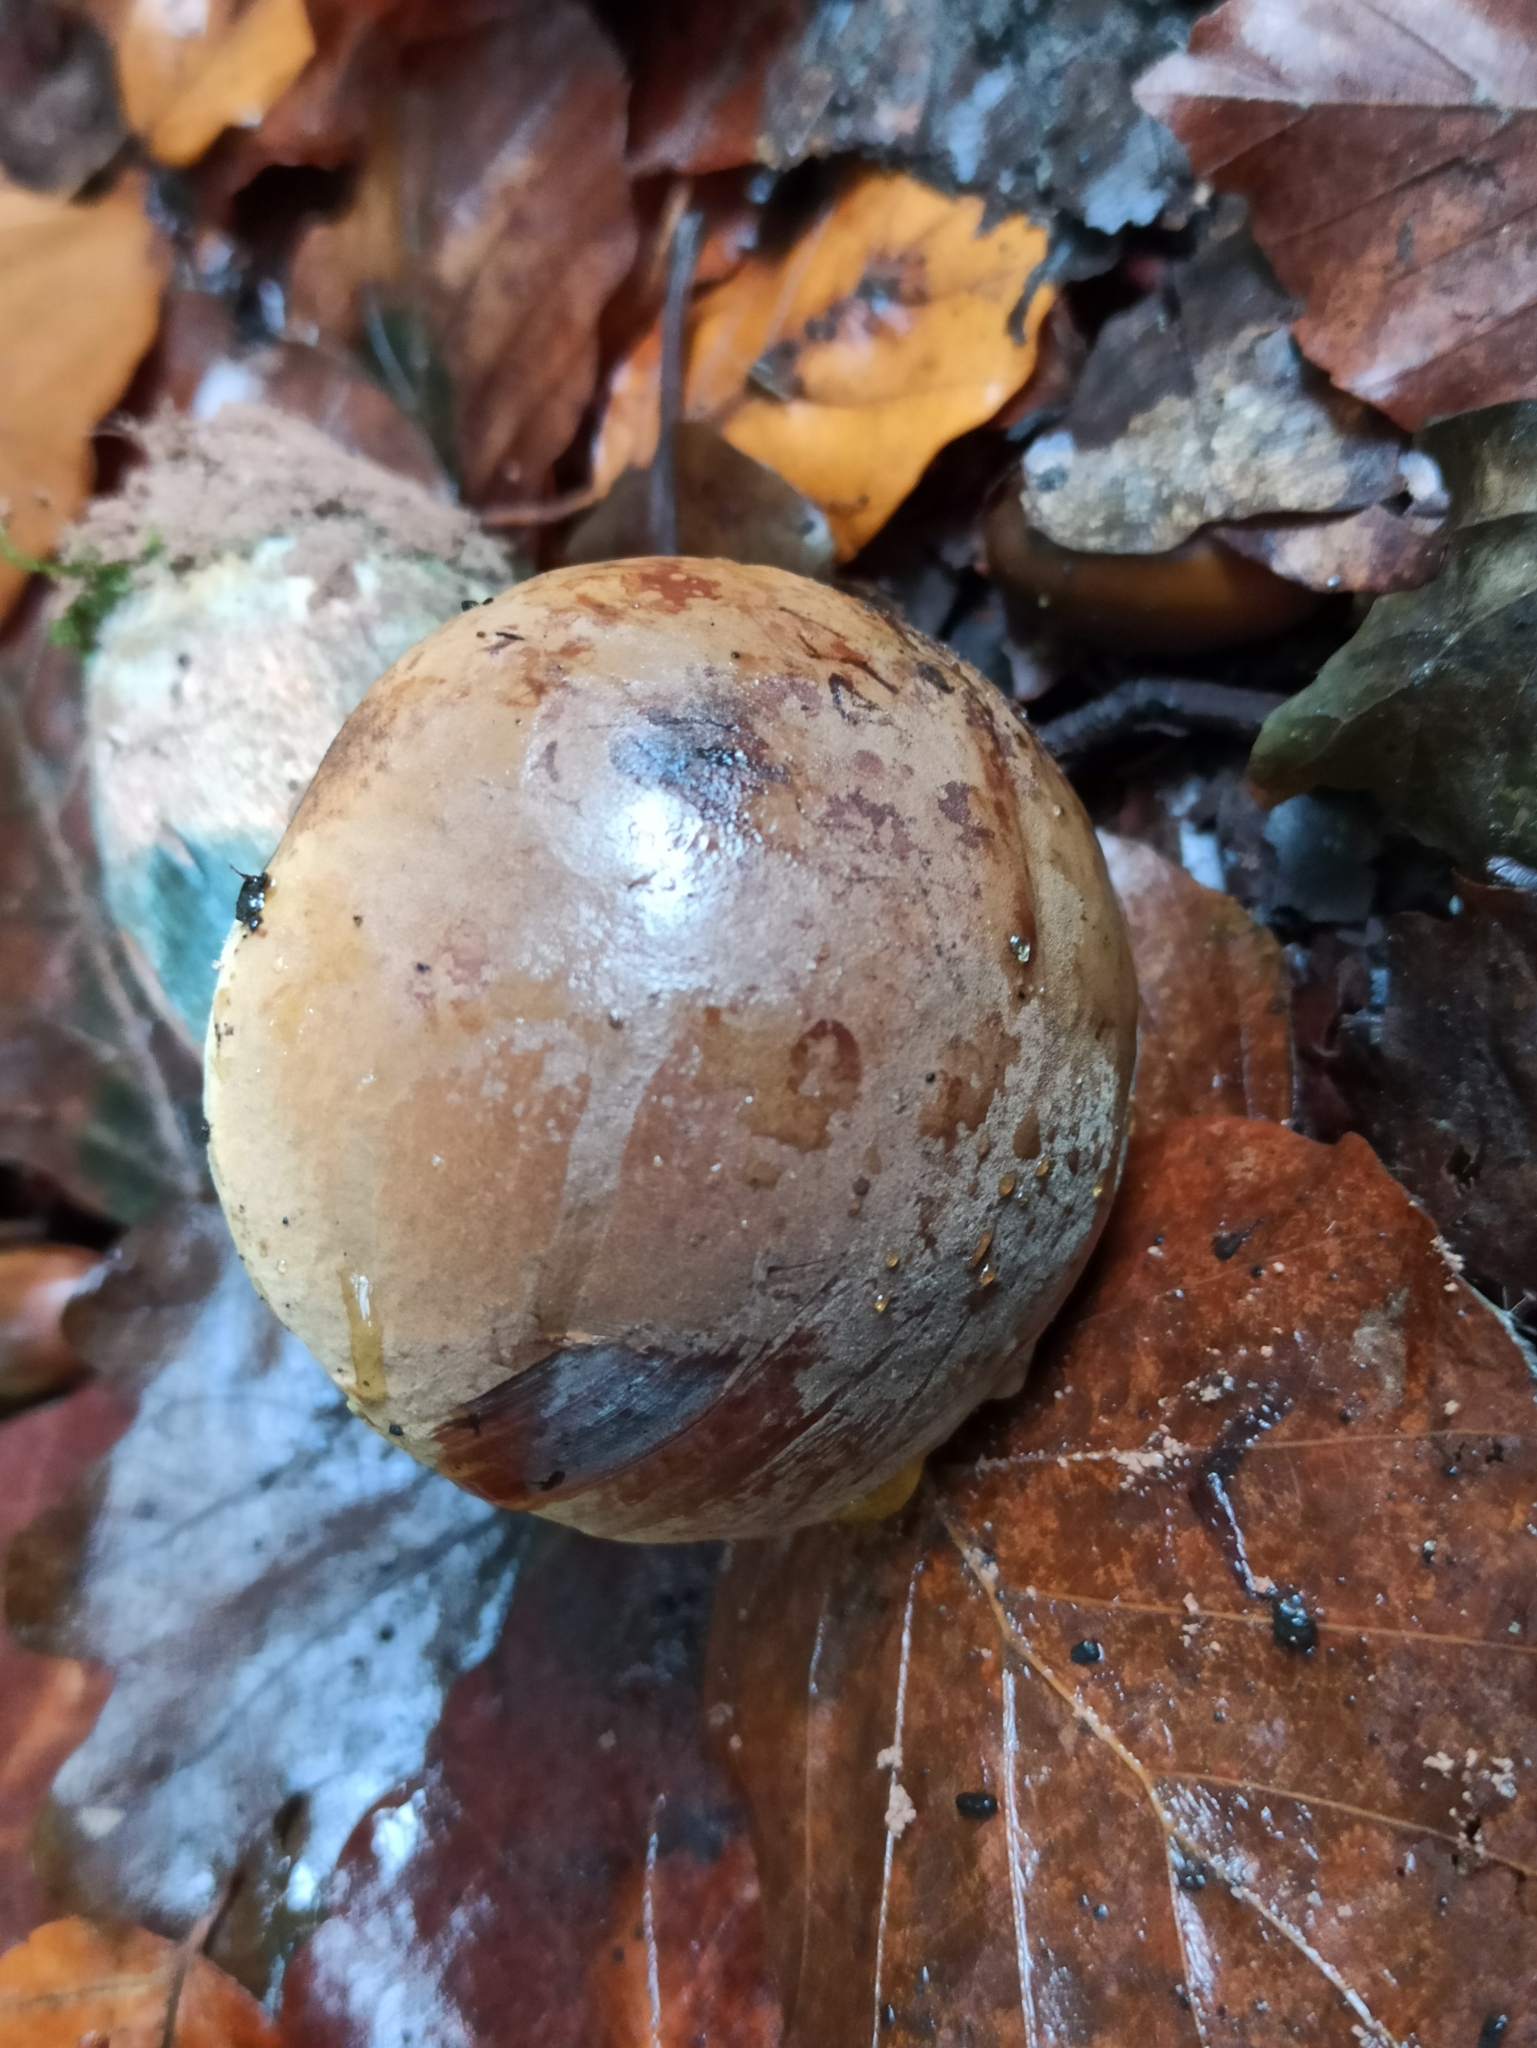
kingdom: Fungi
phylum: Basidiomycota
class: Agaricomycetes
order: Boletales
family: Boletaceae
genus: Neoboletus
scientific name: Neoboletus erythropus
